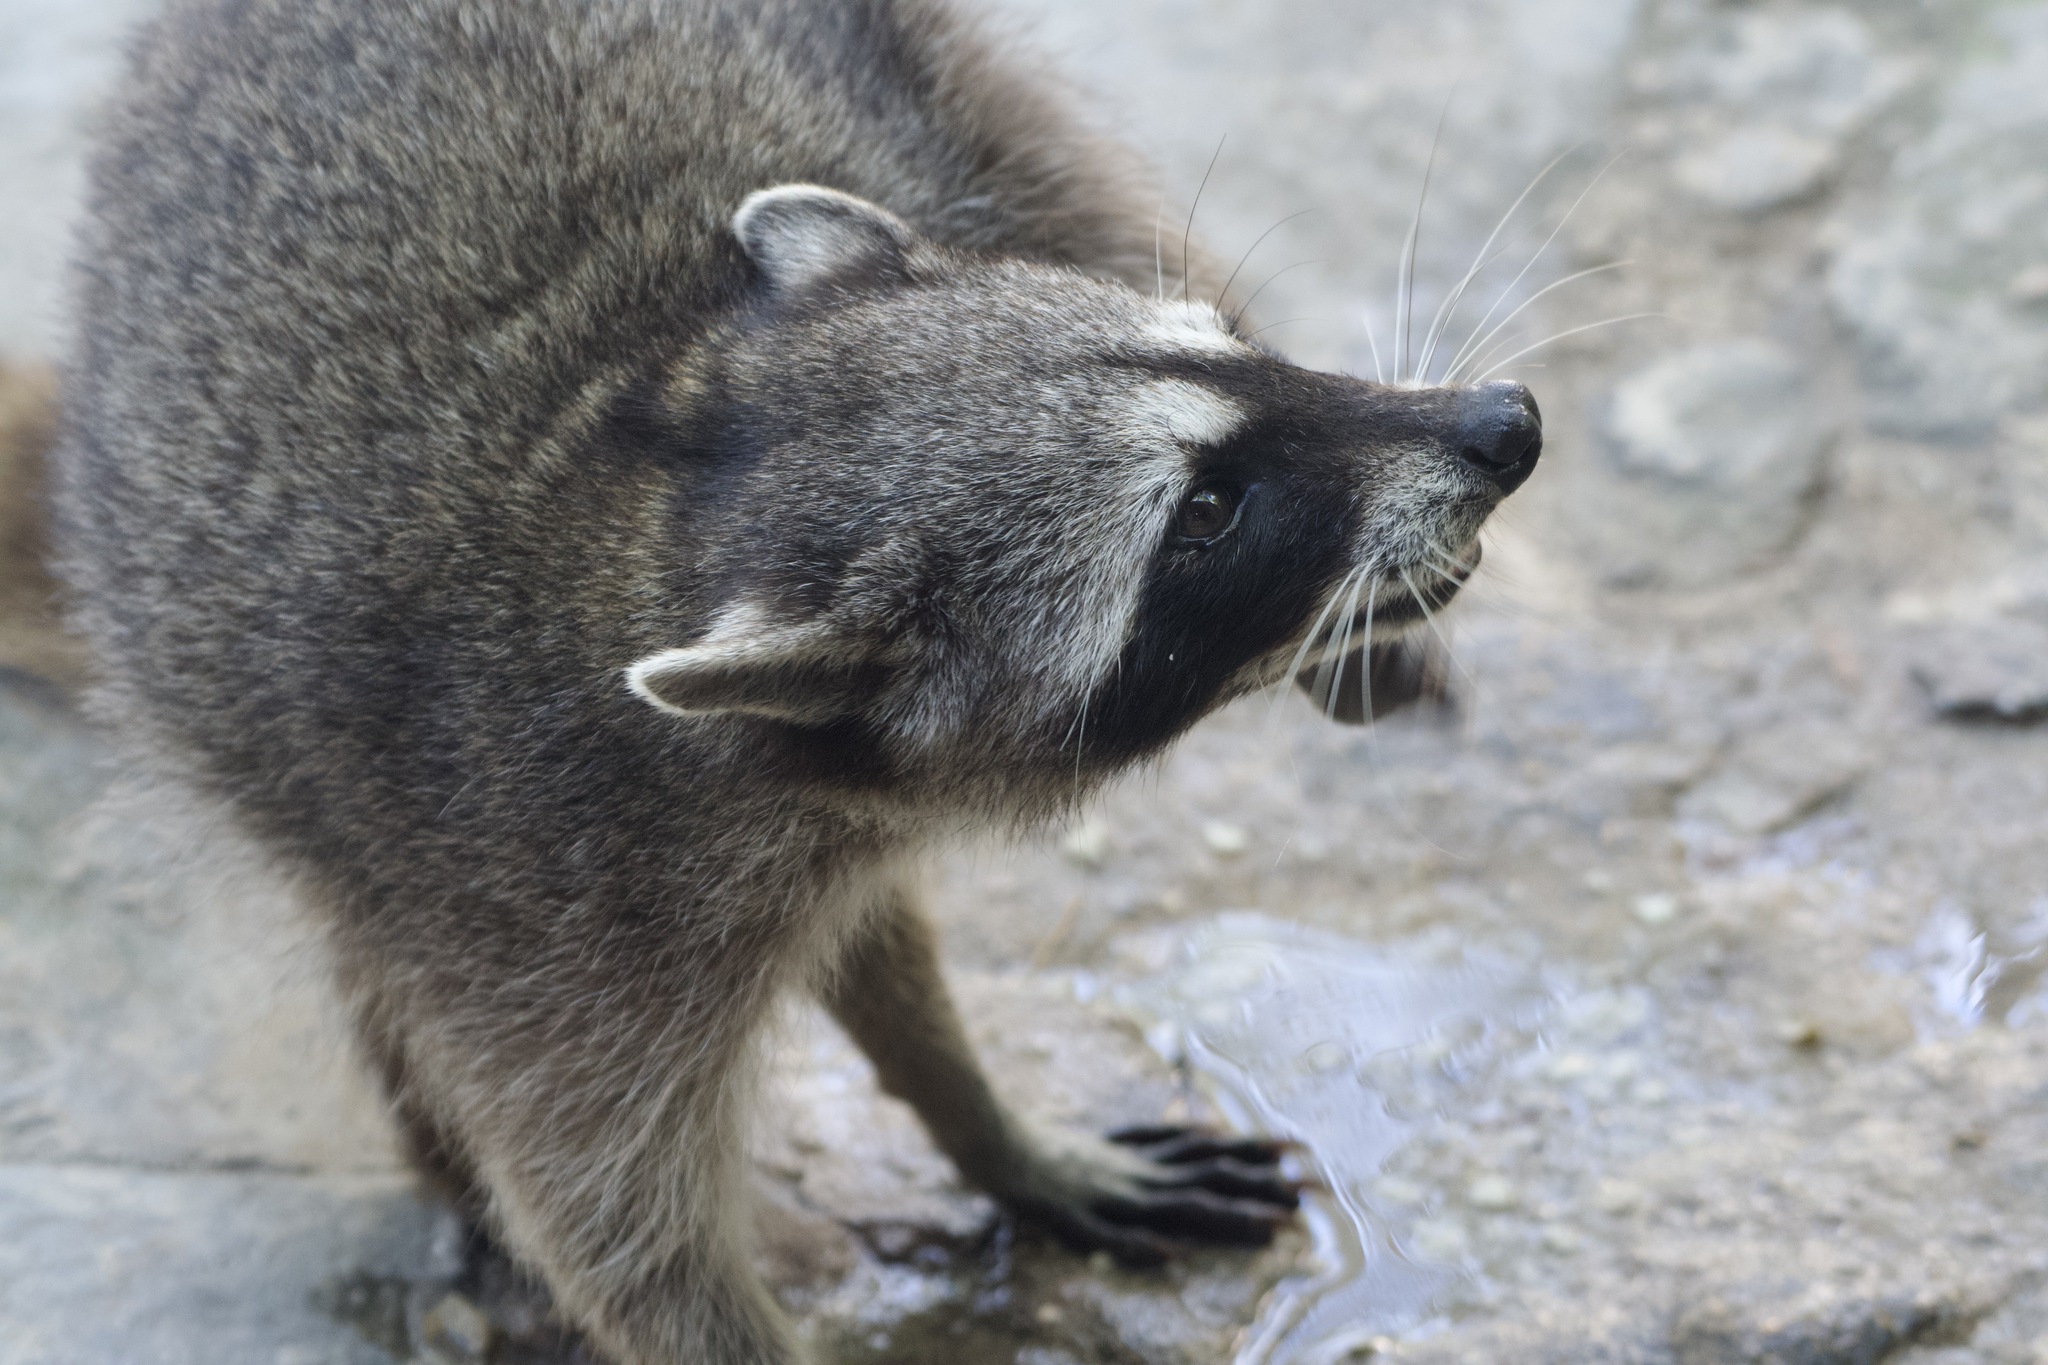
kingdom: Animalia
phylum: Chordata
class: Mammalia
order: Carnivora
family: Procyonidae
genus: Procyon
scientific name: Procyon pygmaeus
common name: Cozumel raccoon
